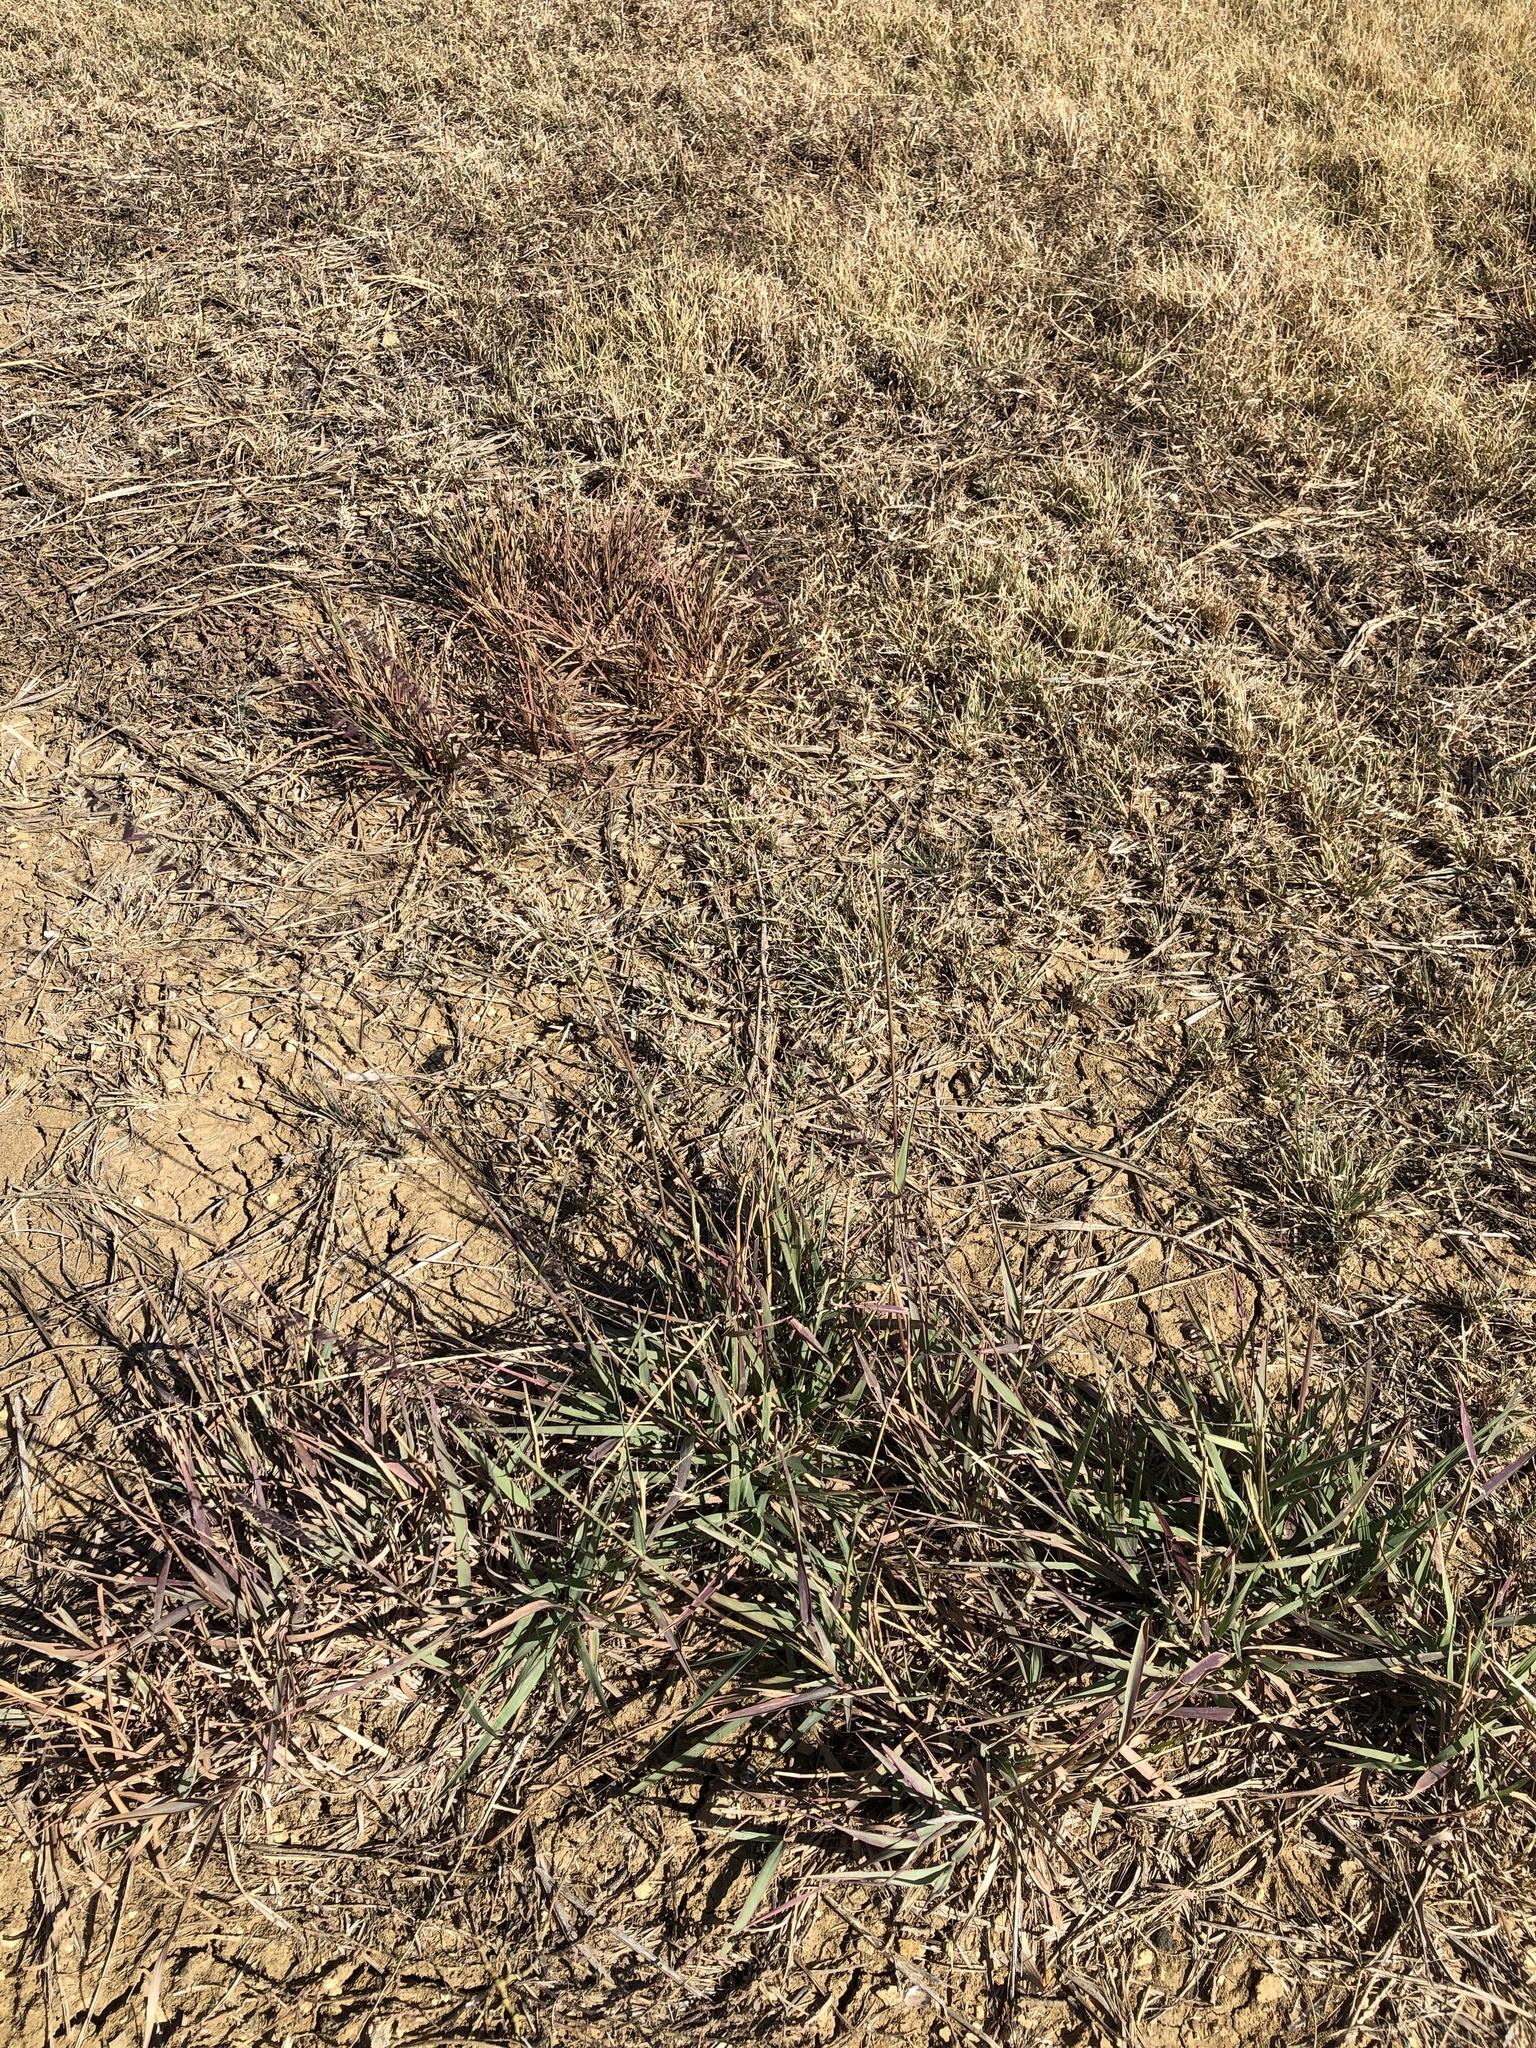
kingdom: Plantae
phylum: Tracheophyta
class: Liliopsida
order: Poales
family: Poaceae
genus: Bouteloua
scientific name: Bouteloua curtipendula
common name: Side-oats grama
